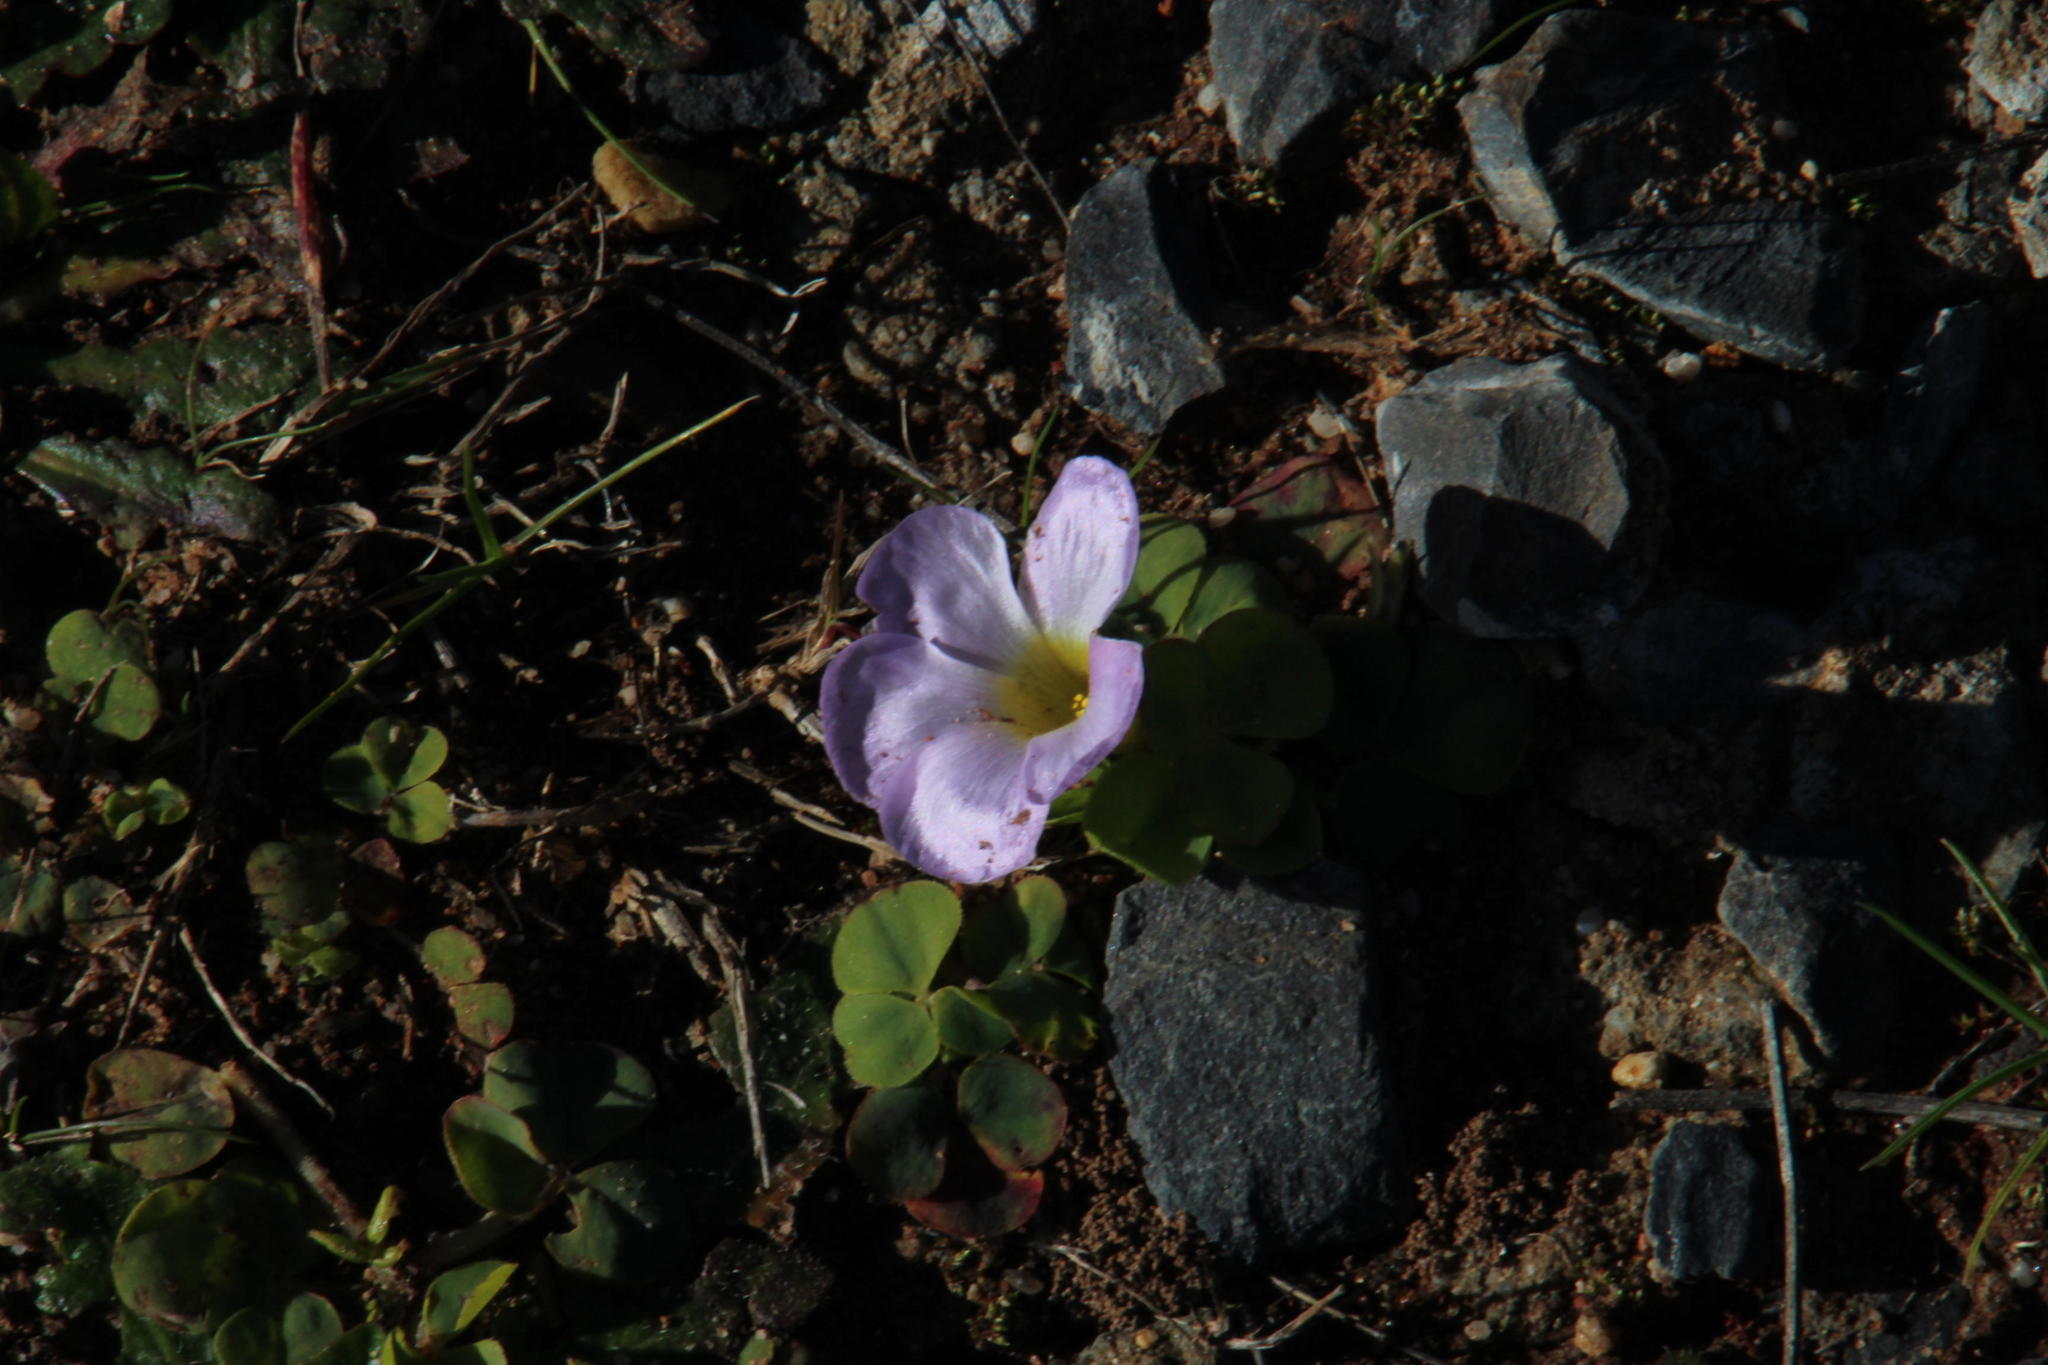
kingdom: Plantae
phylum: Tracheophyta
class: Magnoliopsida
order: Oxalidales
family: Oxalidaceae
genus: Oxalis
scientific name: Oxalis purpurea
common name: Purple woodsorrel
